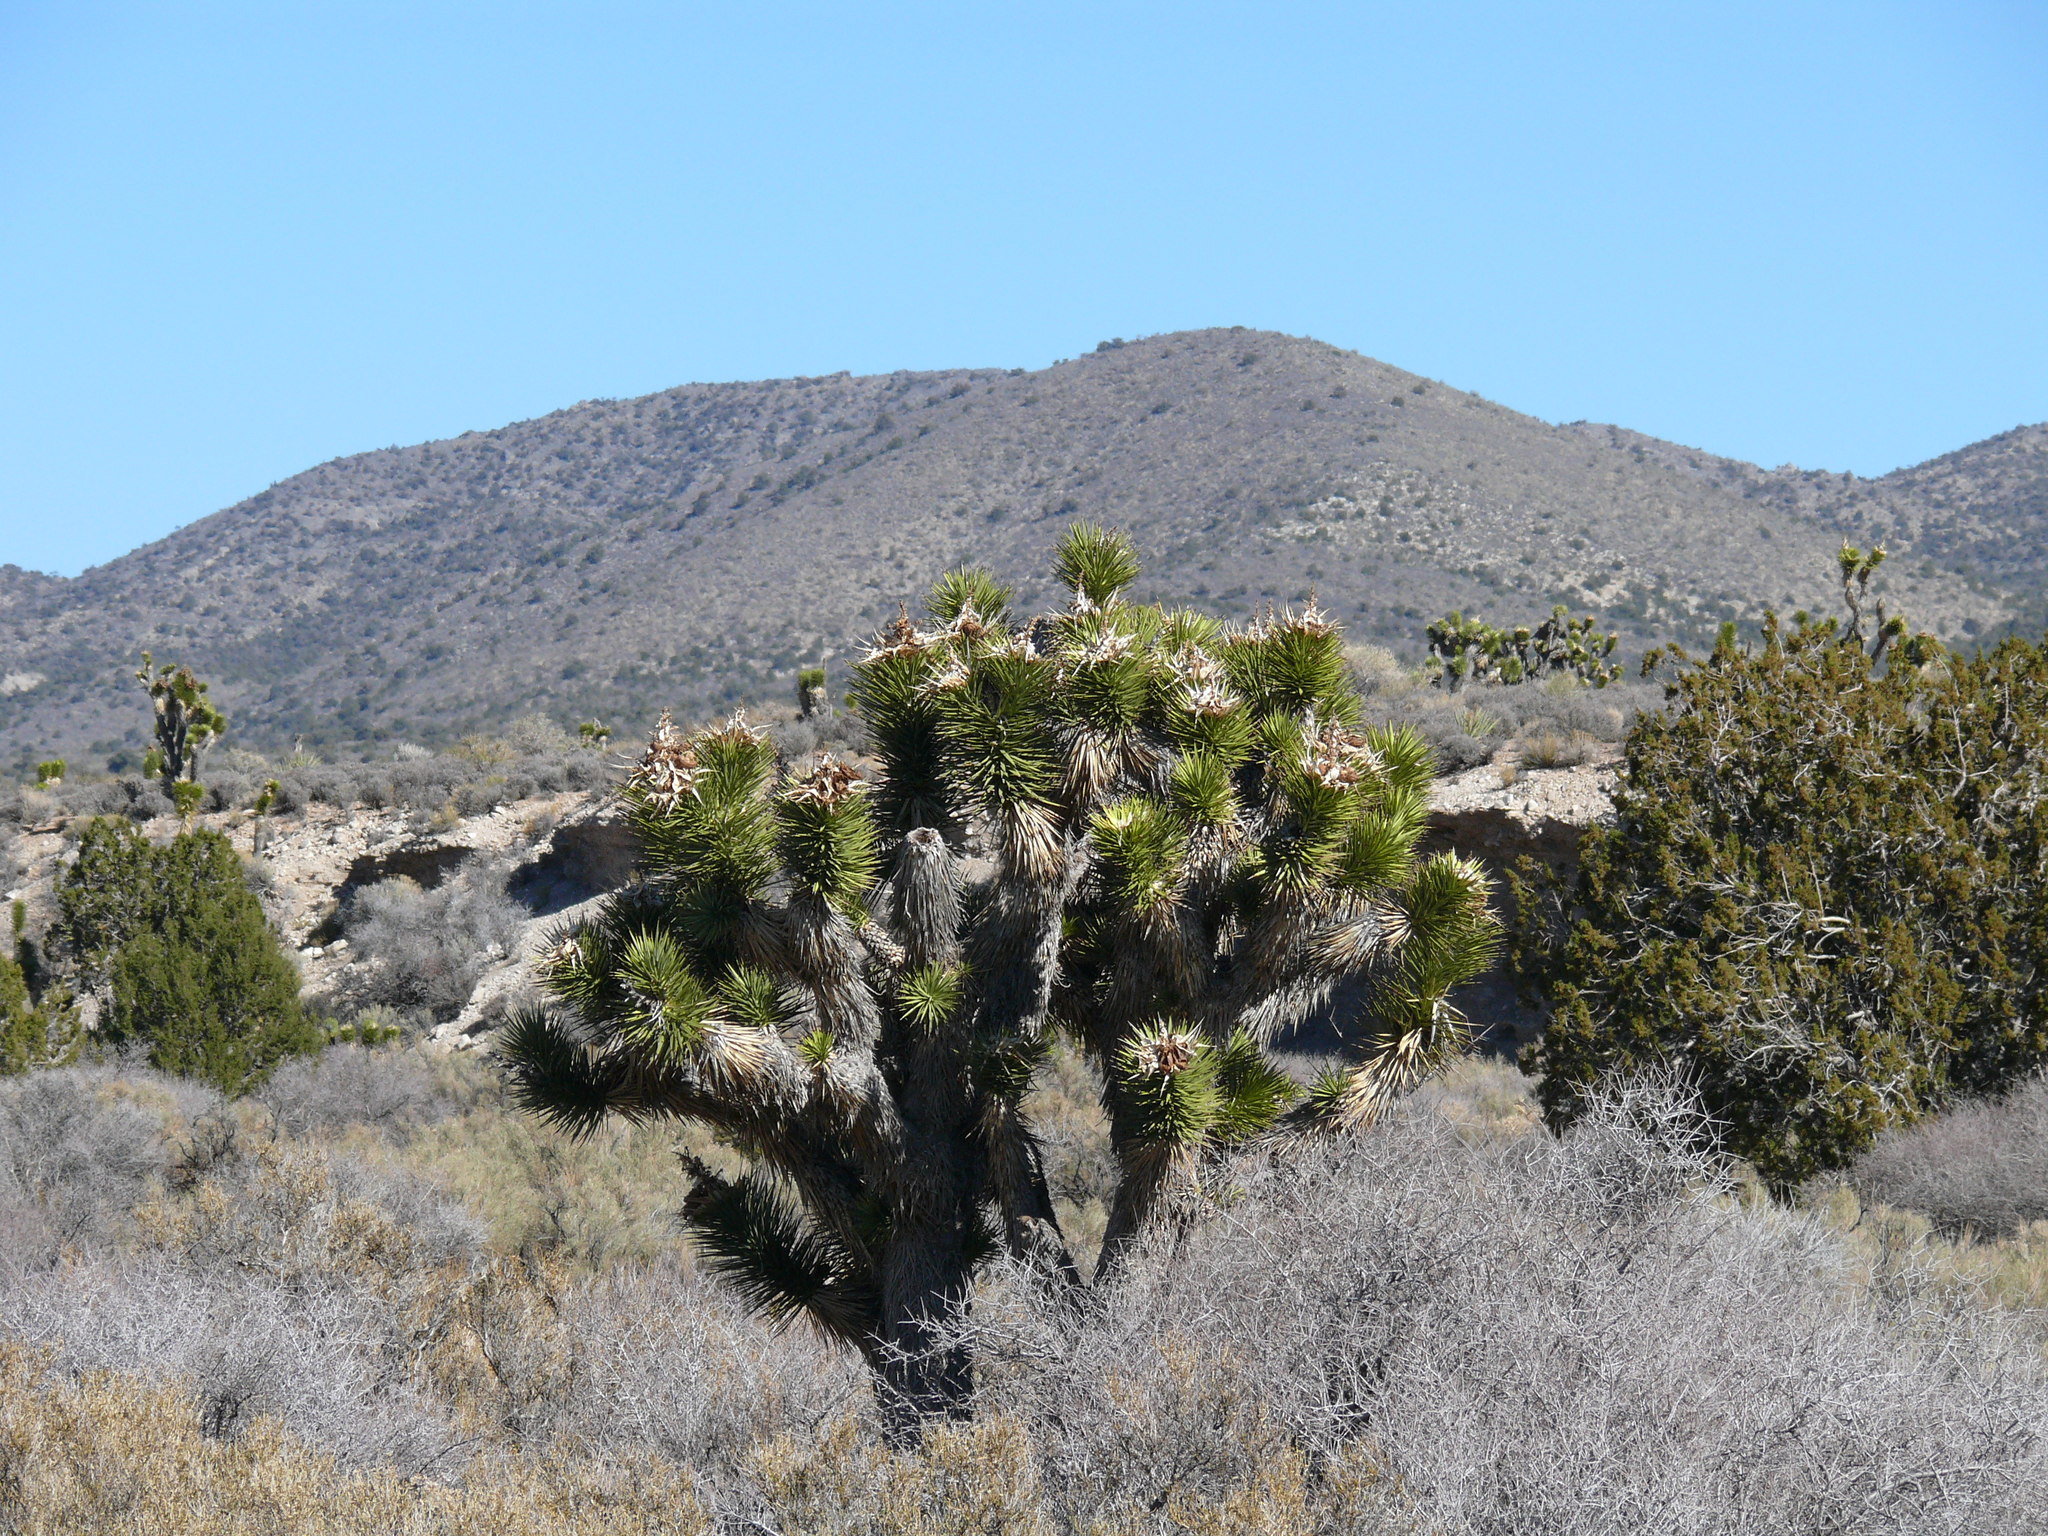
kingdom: Plantae
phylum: Tracheophyta
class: Liliopsida
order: Asparagales
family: Asparagaceae
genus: Yucca
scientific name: Yucca brevifolia
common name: Joshua tree
